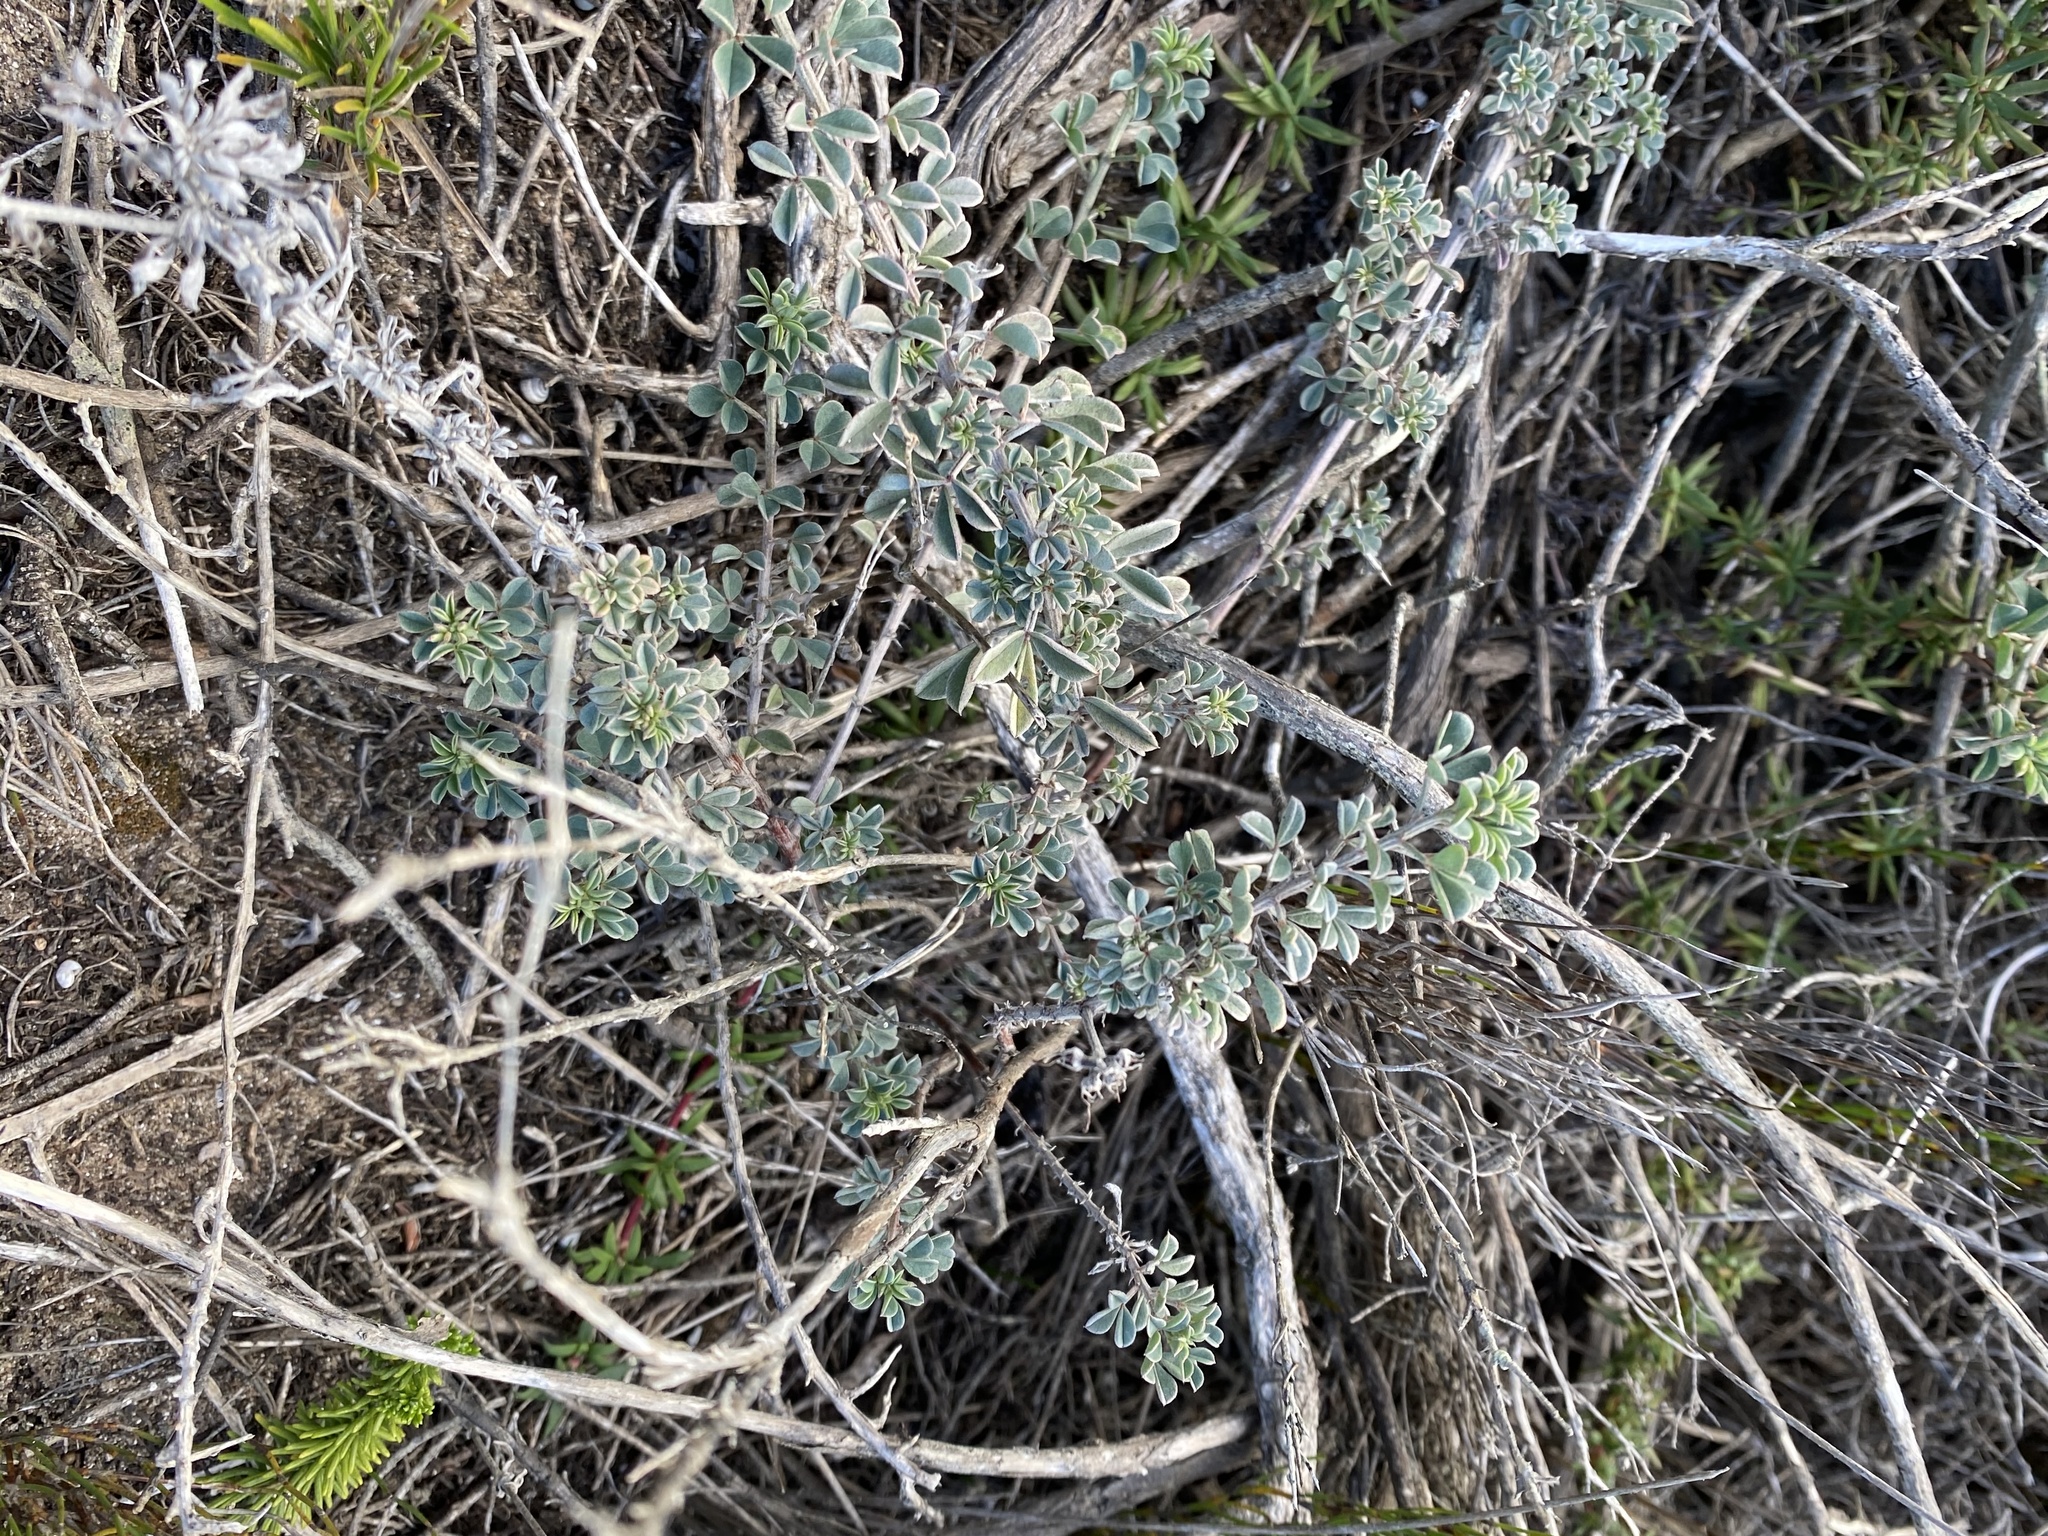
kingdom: Plantae
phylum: Tracheophyta
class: Magnoliopsida
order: Fabales
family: Fabaceae
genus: Indigofera
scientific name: Indigofera
